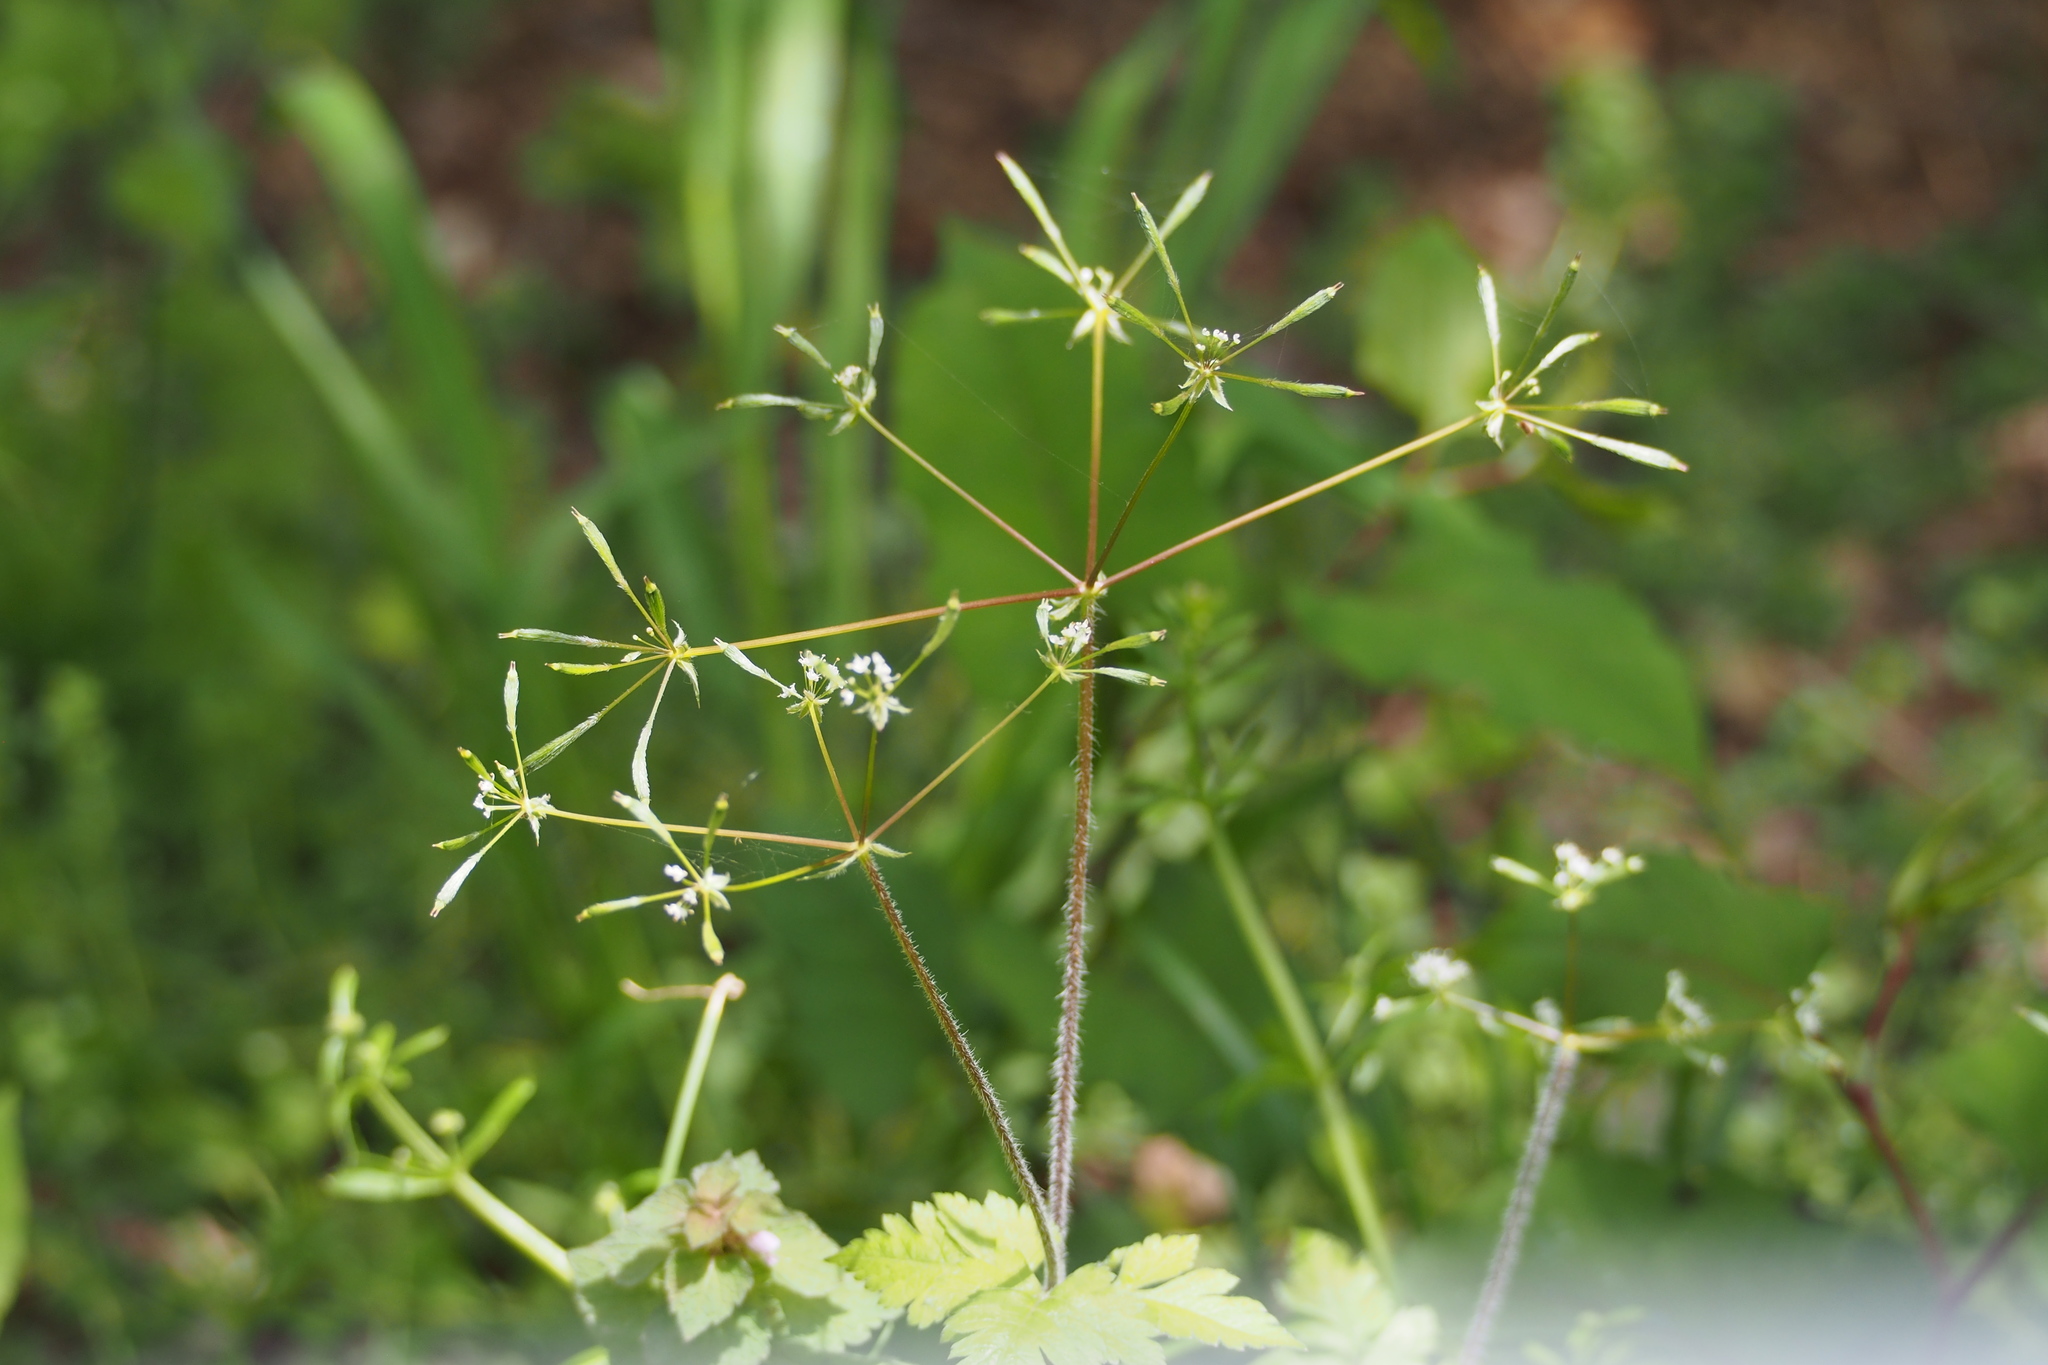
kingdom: Plantae
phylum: Tracheophyta
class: Magnoliopsida
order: Apiales
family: Apiaceae
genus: Osmorhiza
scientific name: Osmorhiza aristata
